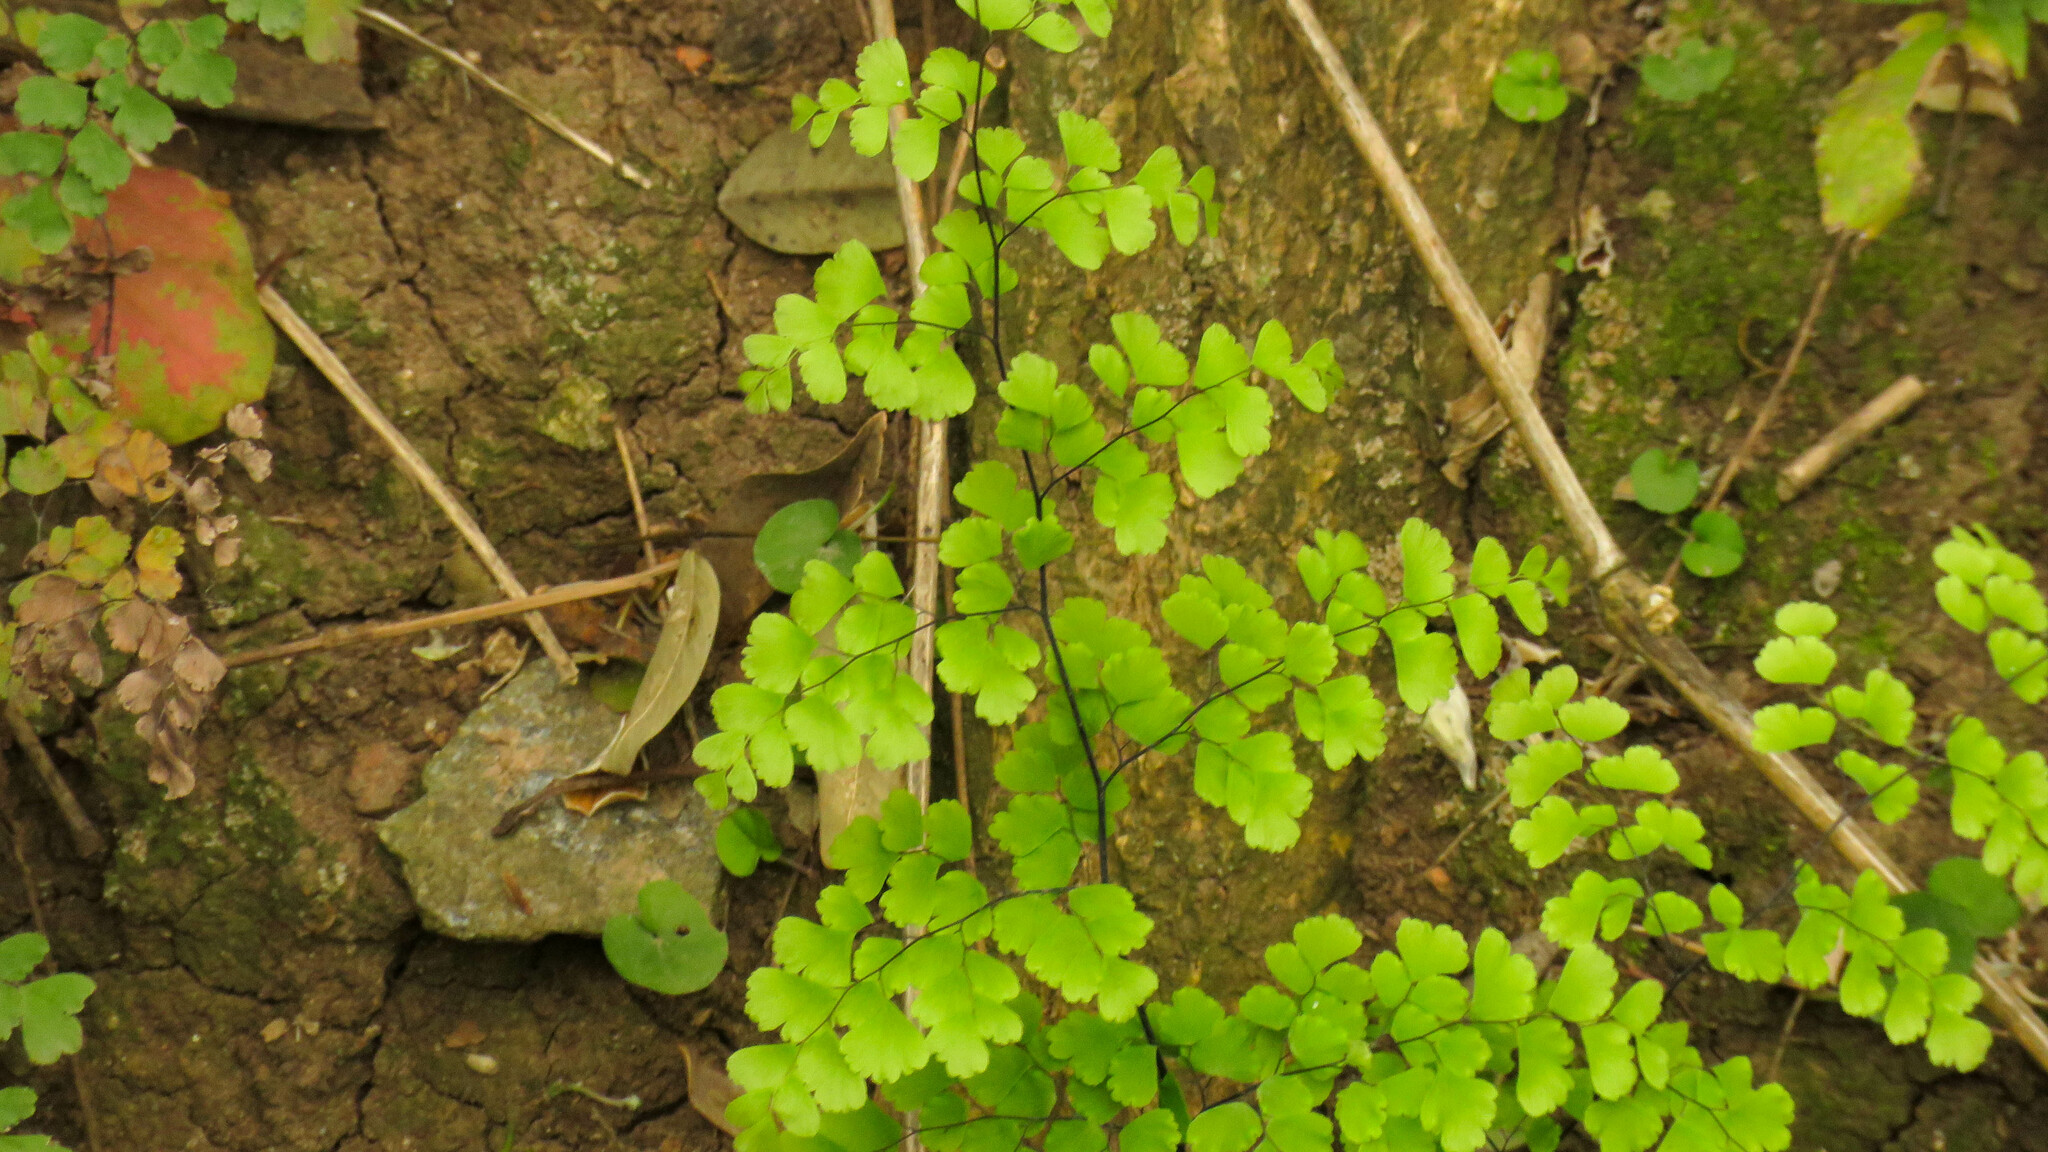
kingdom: Plantae
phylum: Tracheophyta
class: Polypodiopsida
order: Polypodiales
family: Pteridaceae
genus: Adiantum
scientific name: Adiantum raddianum
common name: Delta maidenhair fern
